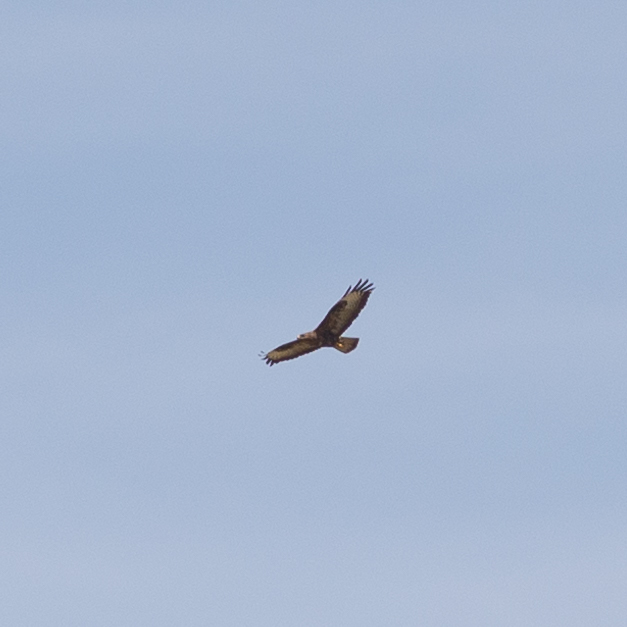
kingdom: Animalia
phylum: Chordata
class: Aves
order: Accipitriformes
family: Accipitridae
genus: Buteo
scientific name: Buteo buteo
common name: Common buzzard
